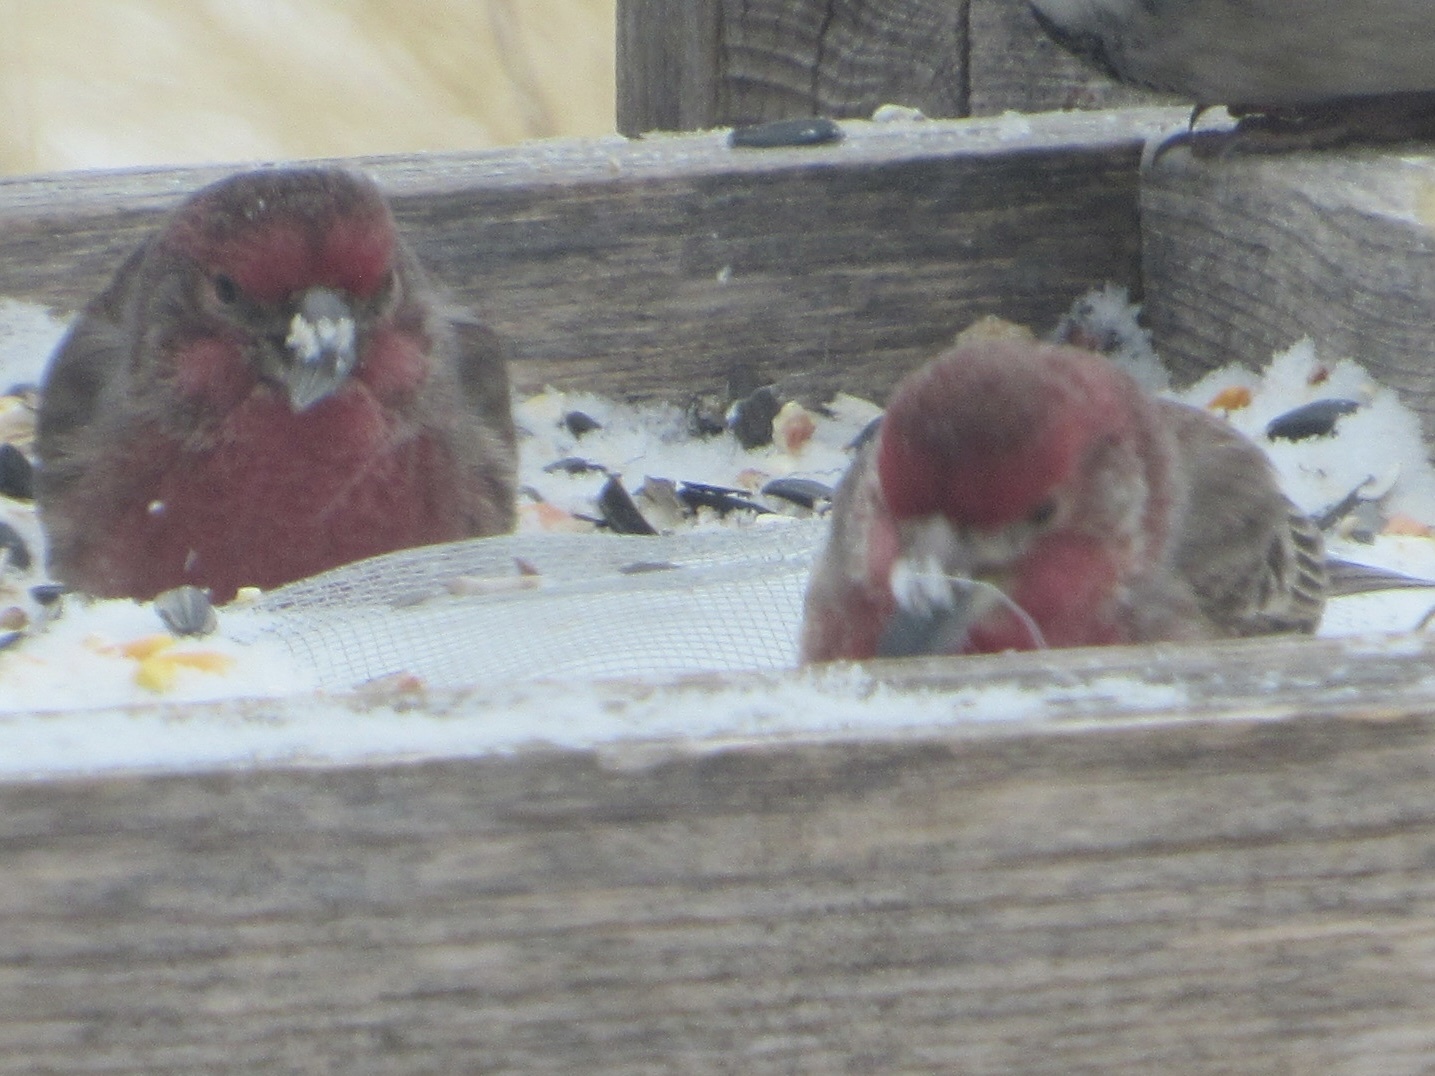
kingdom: Animalia
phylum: Chordata
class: Aves
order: Passeriformes
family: Fringillidae
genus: Haemorhous
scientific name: Haemorhous mexicanus
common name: House finch
